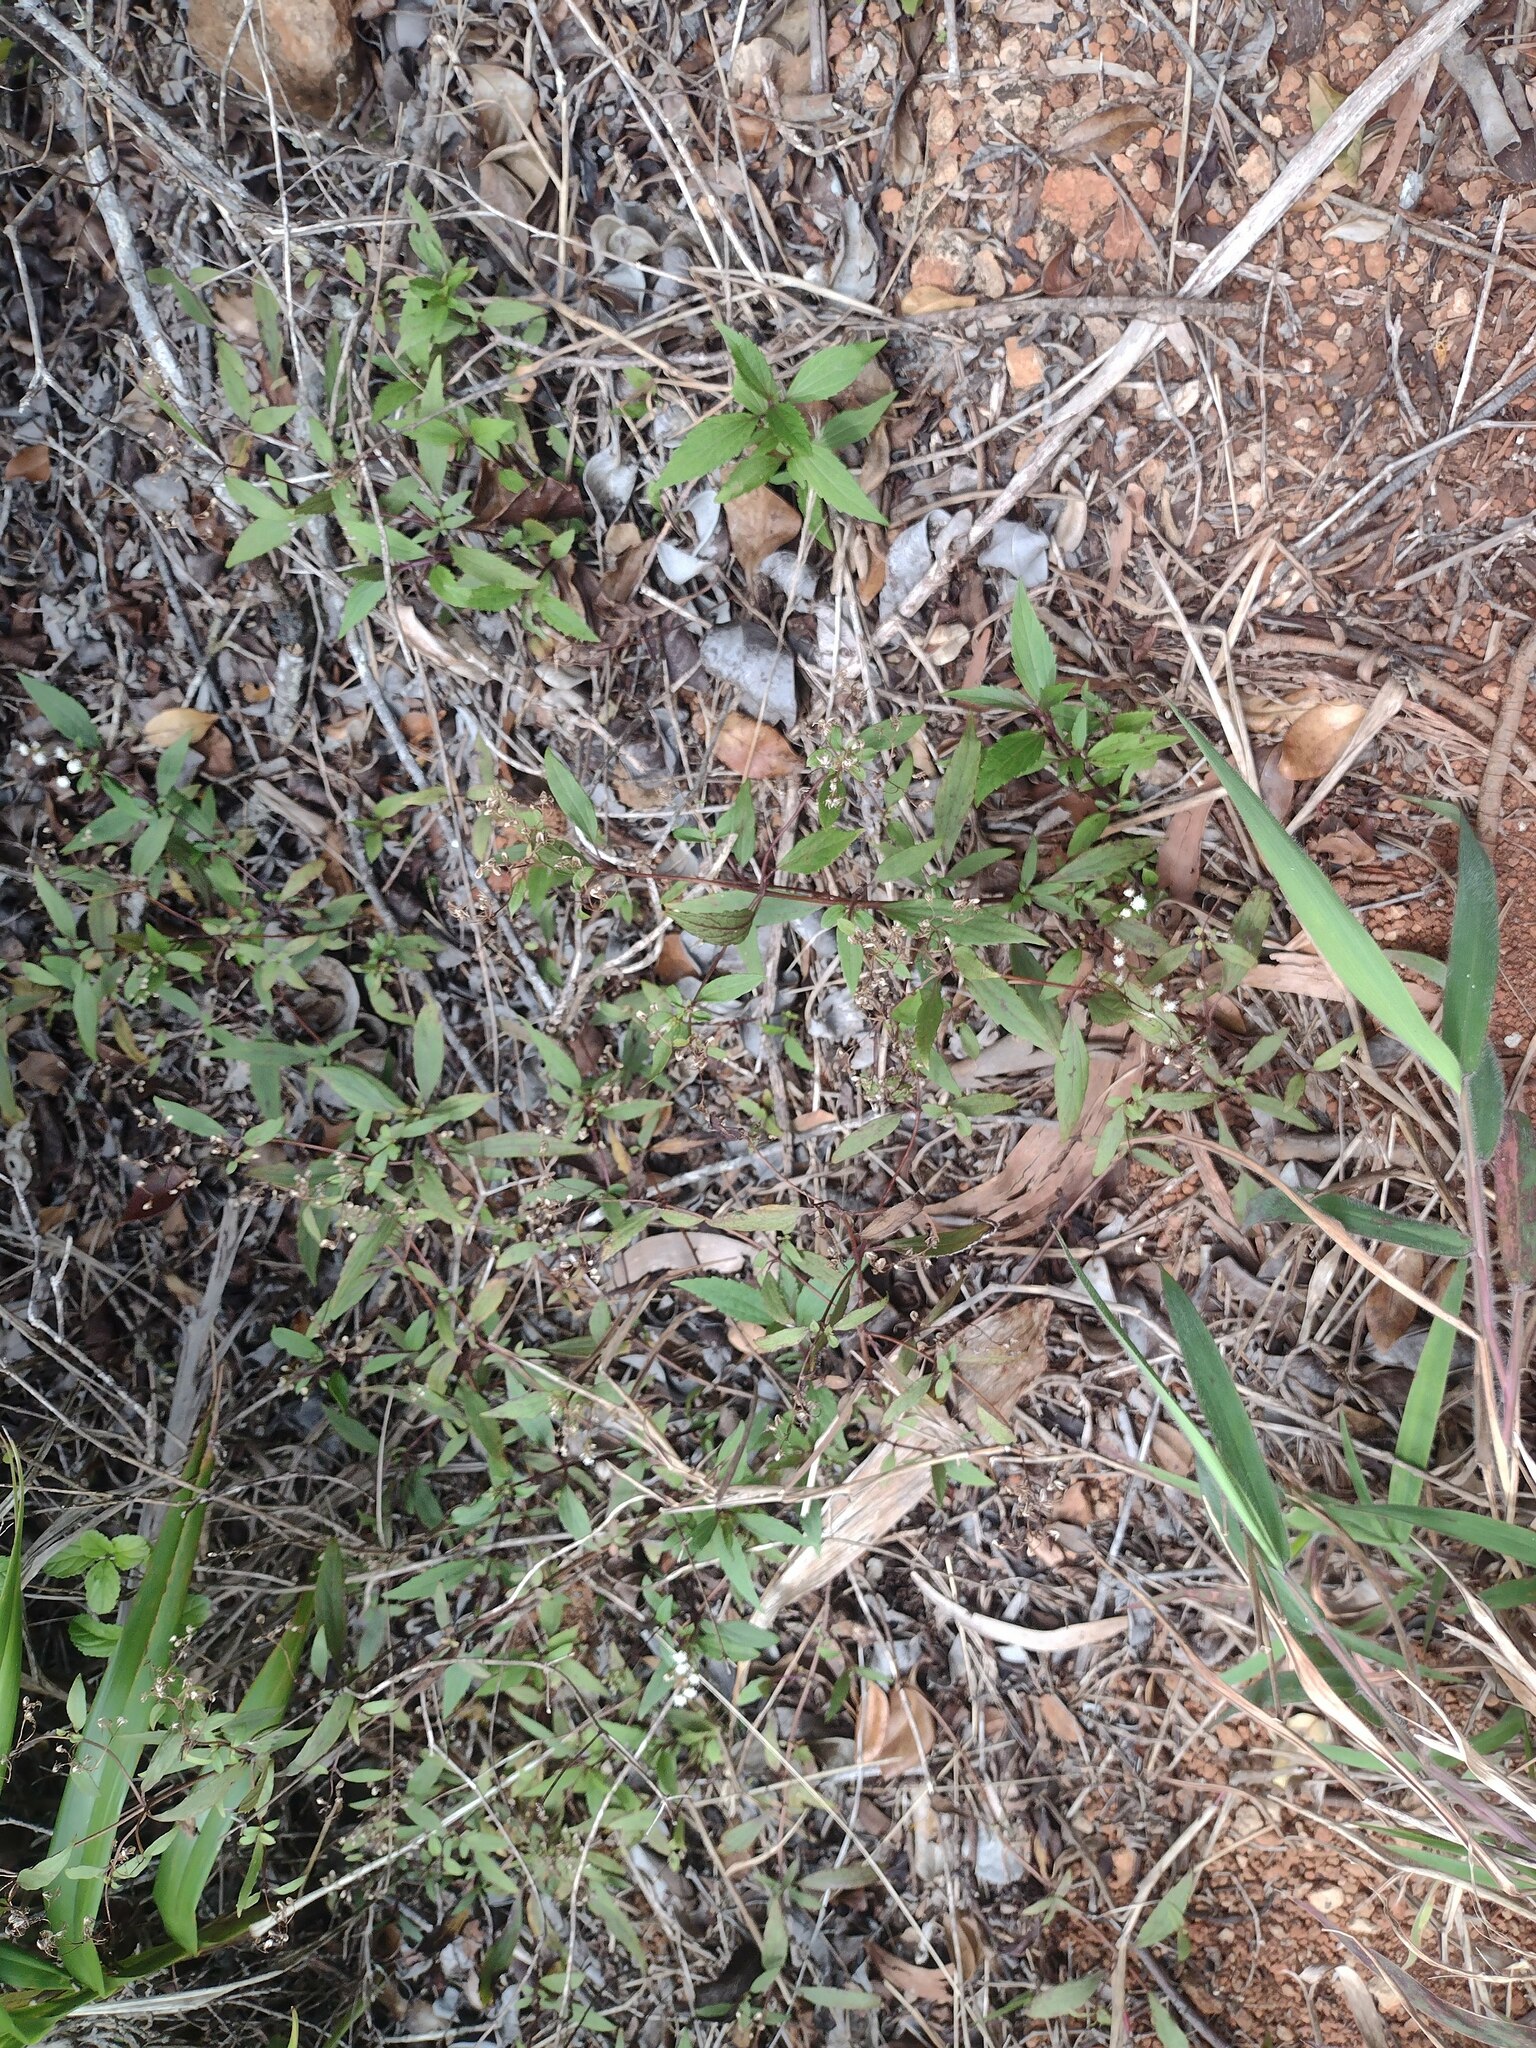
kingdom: Plantae
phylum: Tracheophyta
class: Magnoliopsida
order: Asterales
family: Asteraceae
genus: Ageratina
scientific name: Ageratina riparia
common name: Creeping croftonweed
